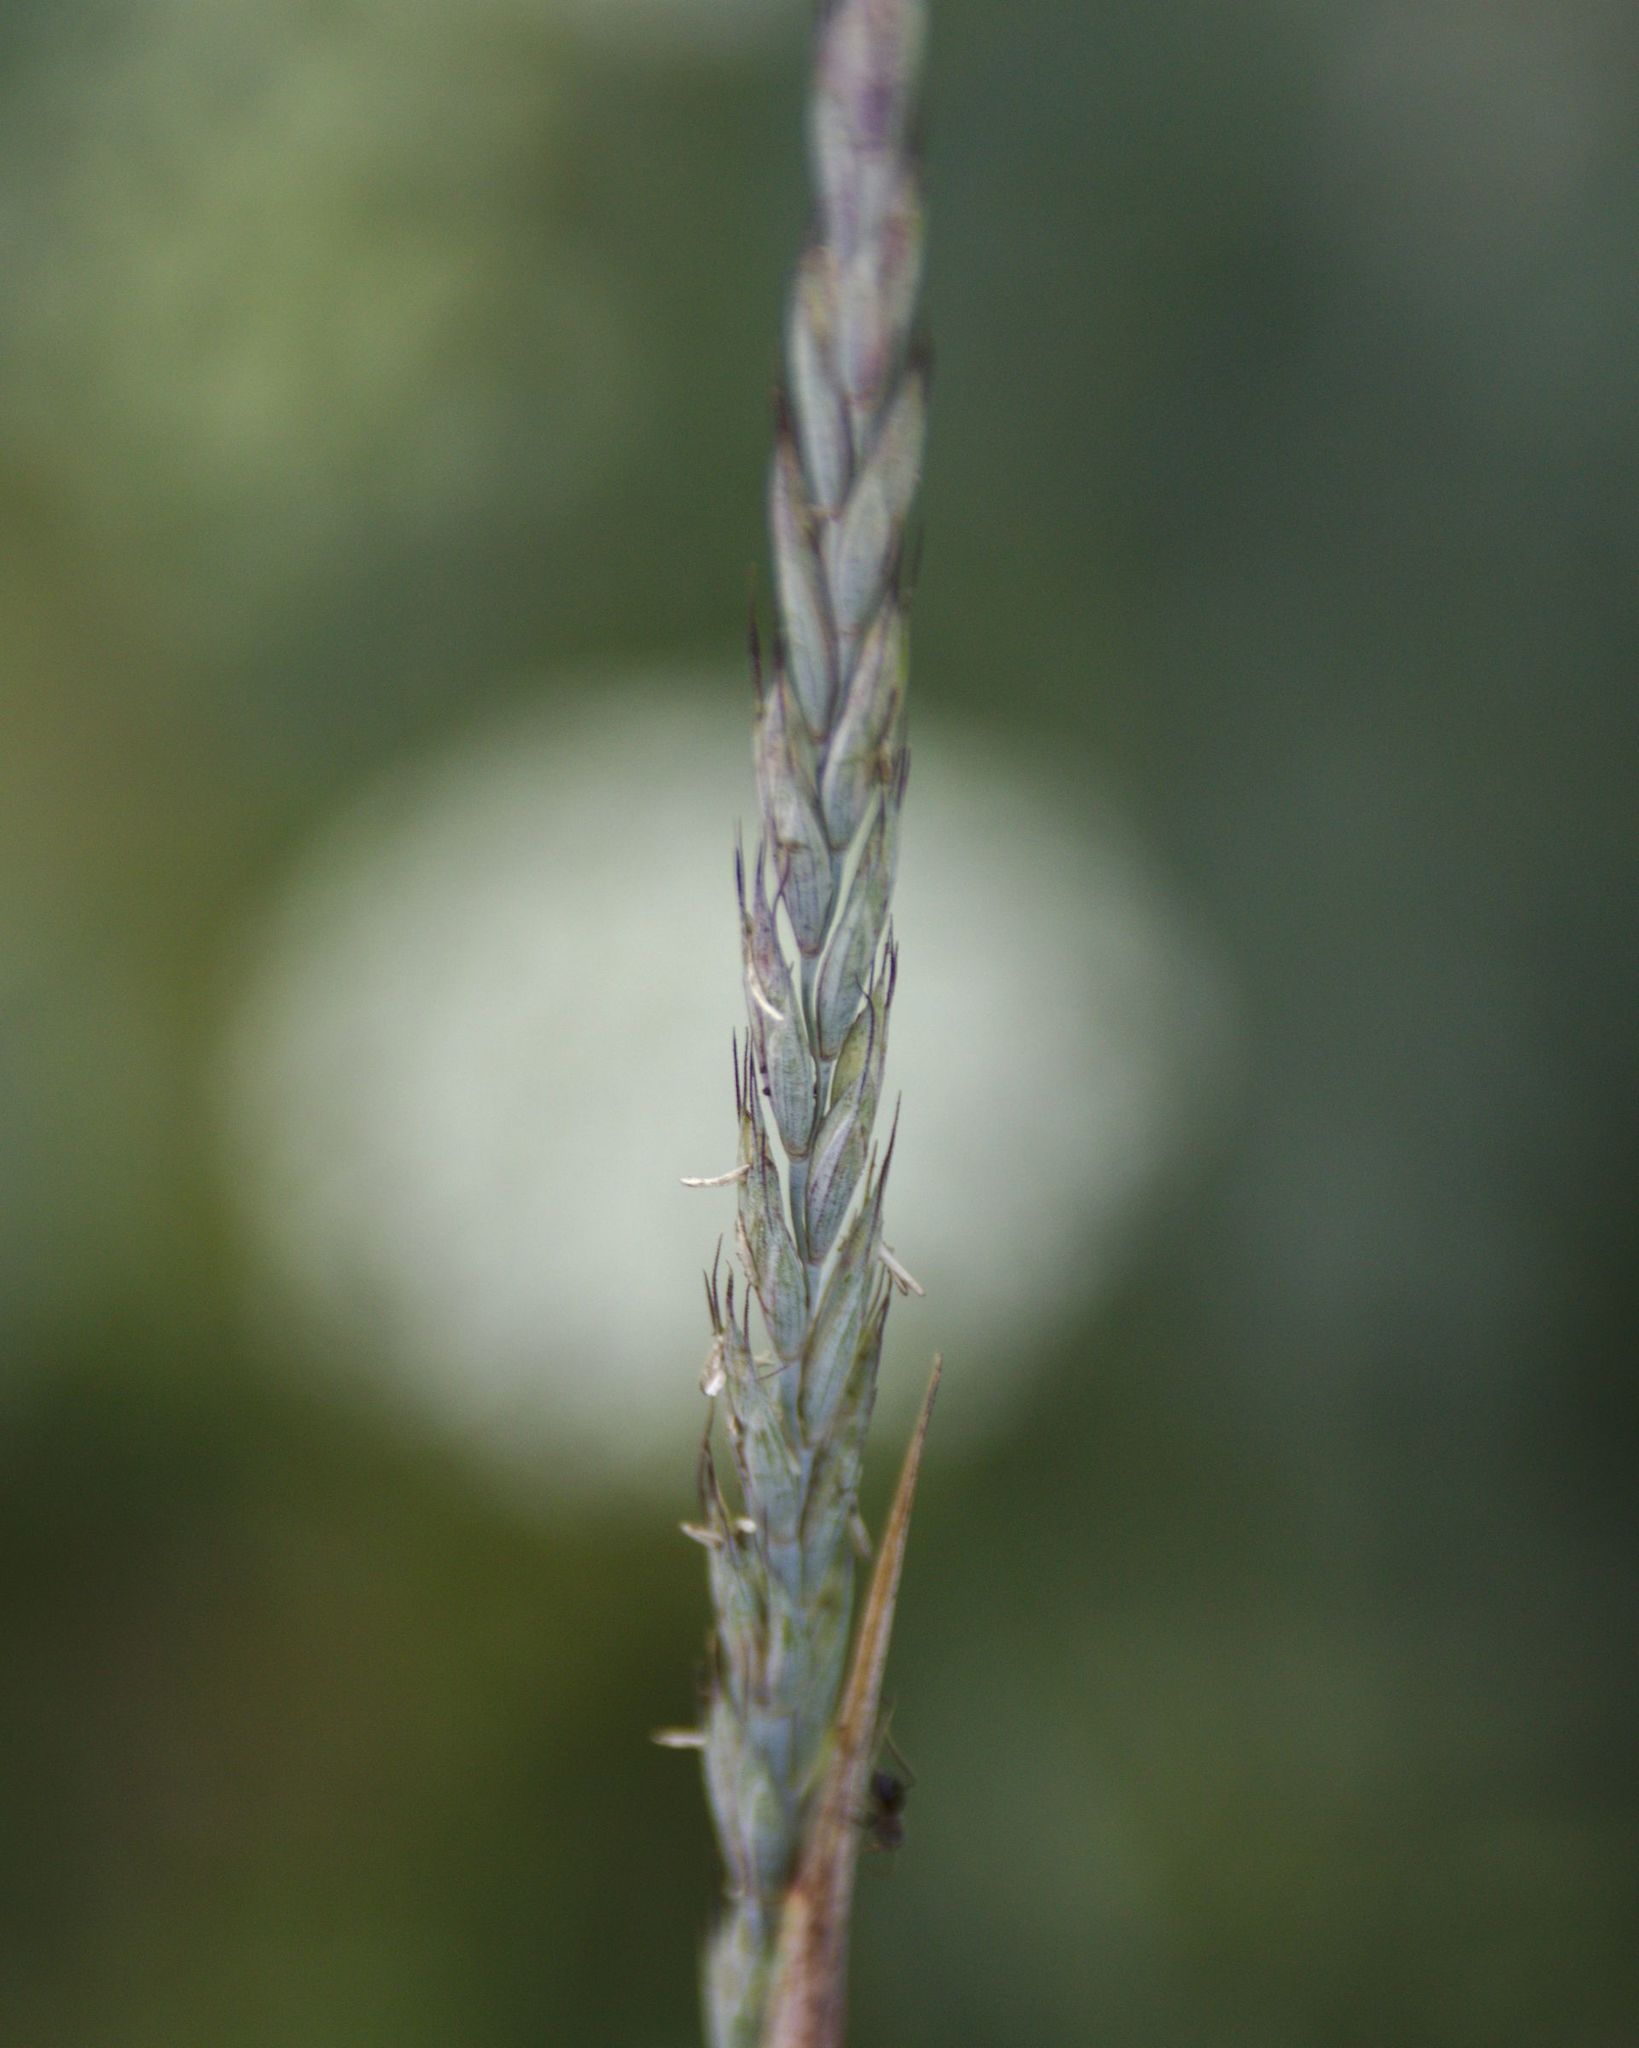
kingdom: Plantae
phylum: Tracheophyta
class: Liliopsida
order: Poales
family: Poaceae
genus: Elymus
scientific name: Elymus repens
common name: Quackgrass
